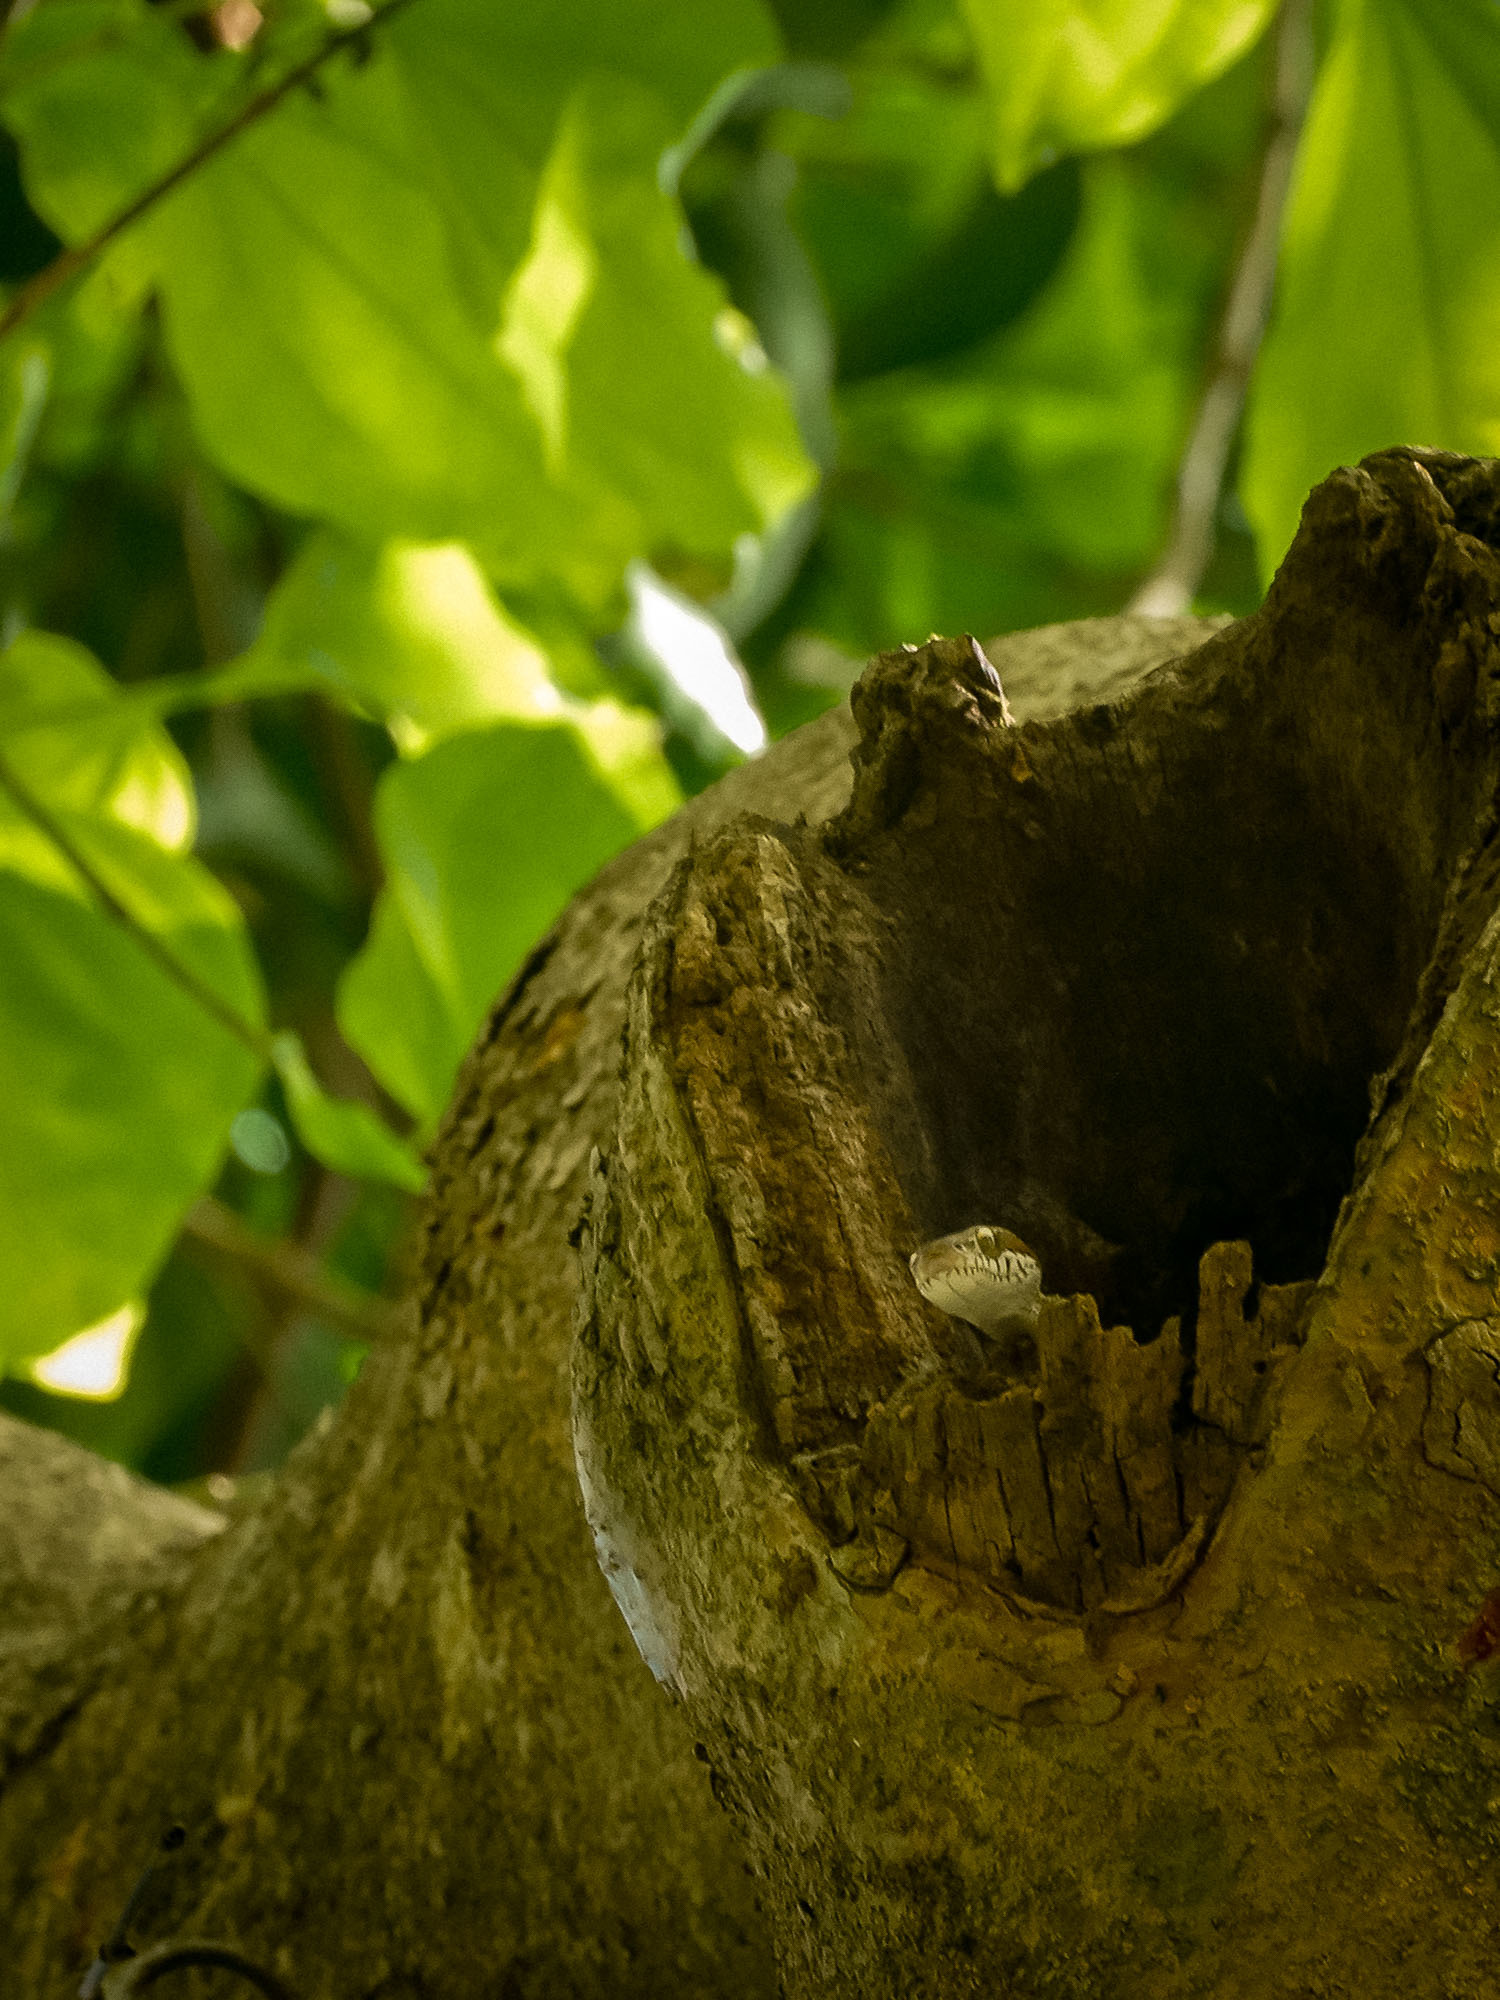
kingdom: Animalia
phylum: Chordata
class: Squamata
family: Colubridae
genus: Boiga
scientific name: Boiga forsteni
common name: Forsten's cat snake
